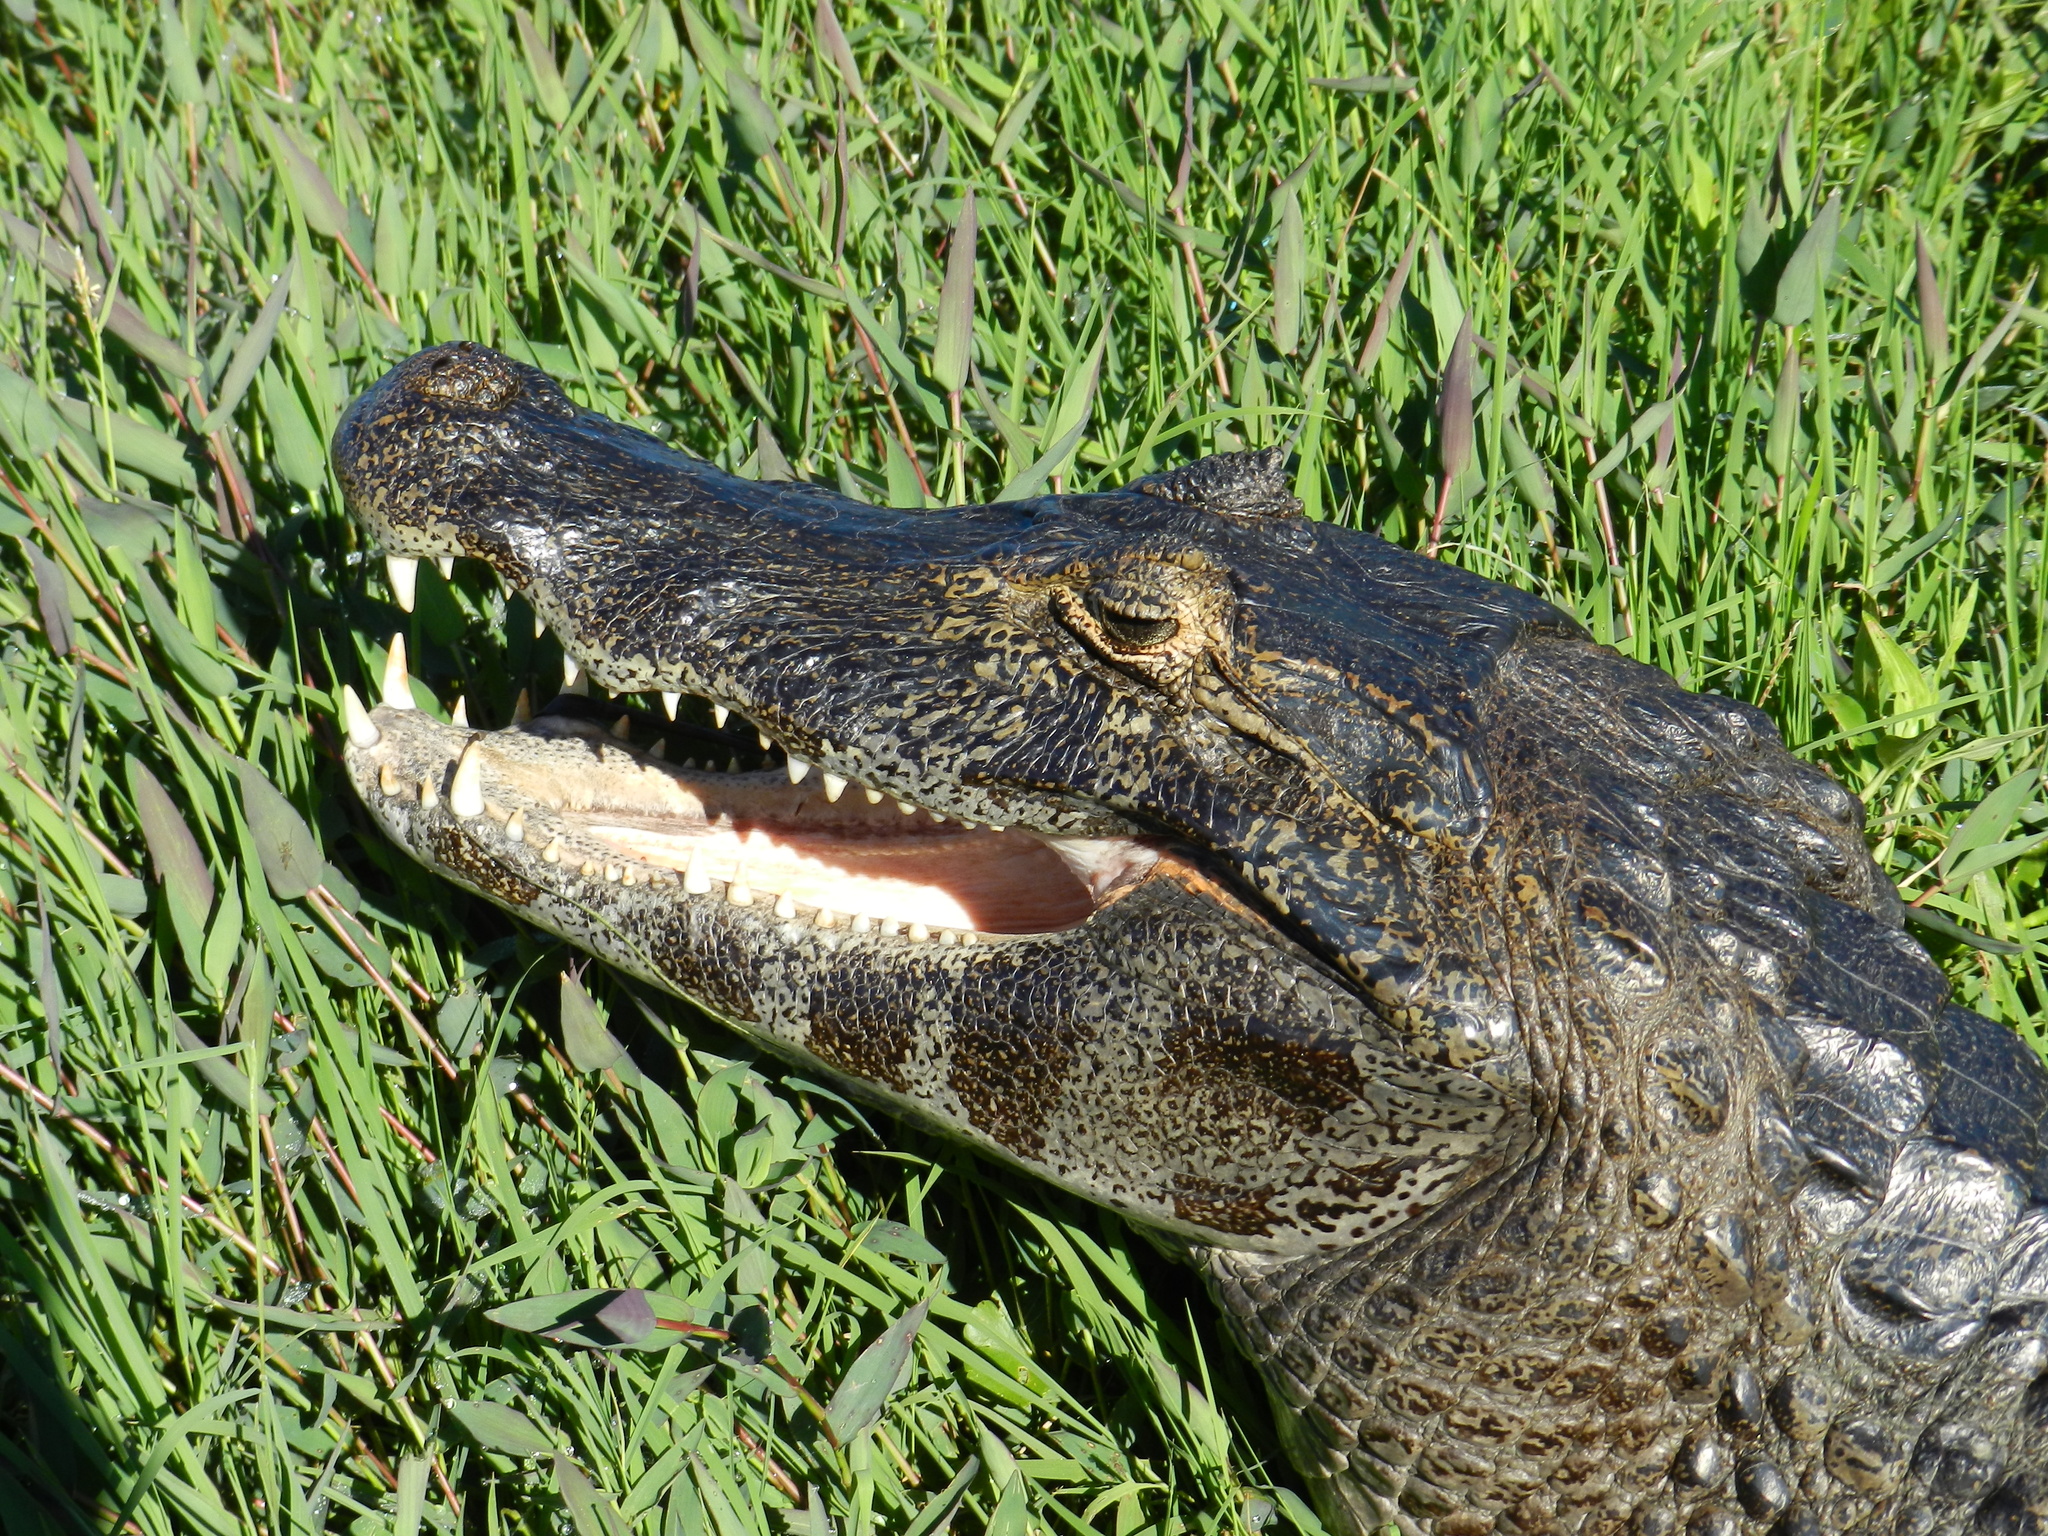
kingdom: Animalia
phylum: Chordata
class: Crocodylia
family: Alligatoridae
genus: Caiman
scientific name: Caiman yacare
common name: Yacare caiman
